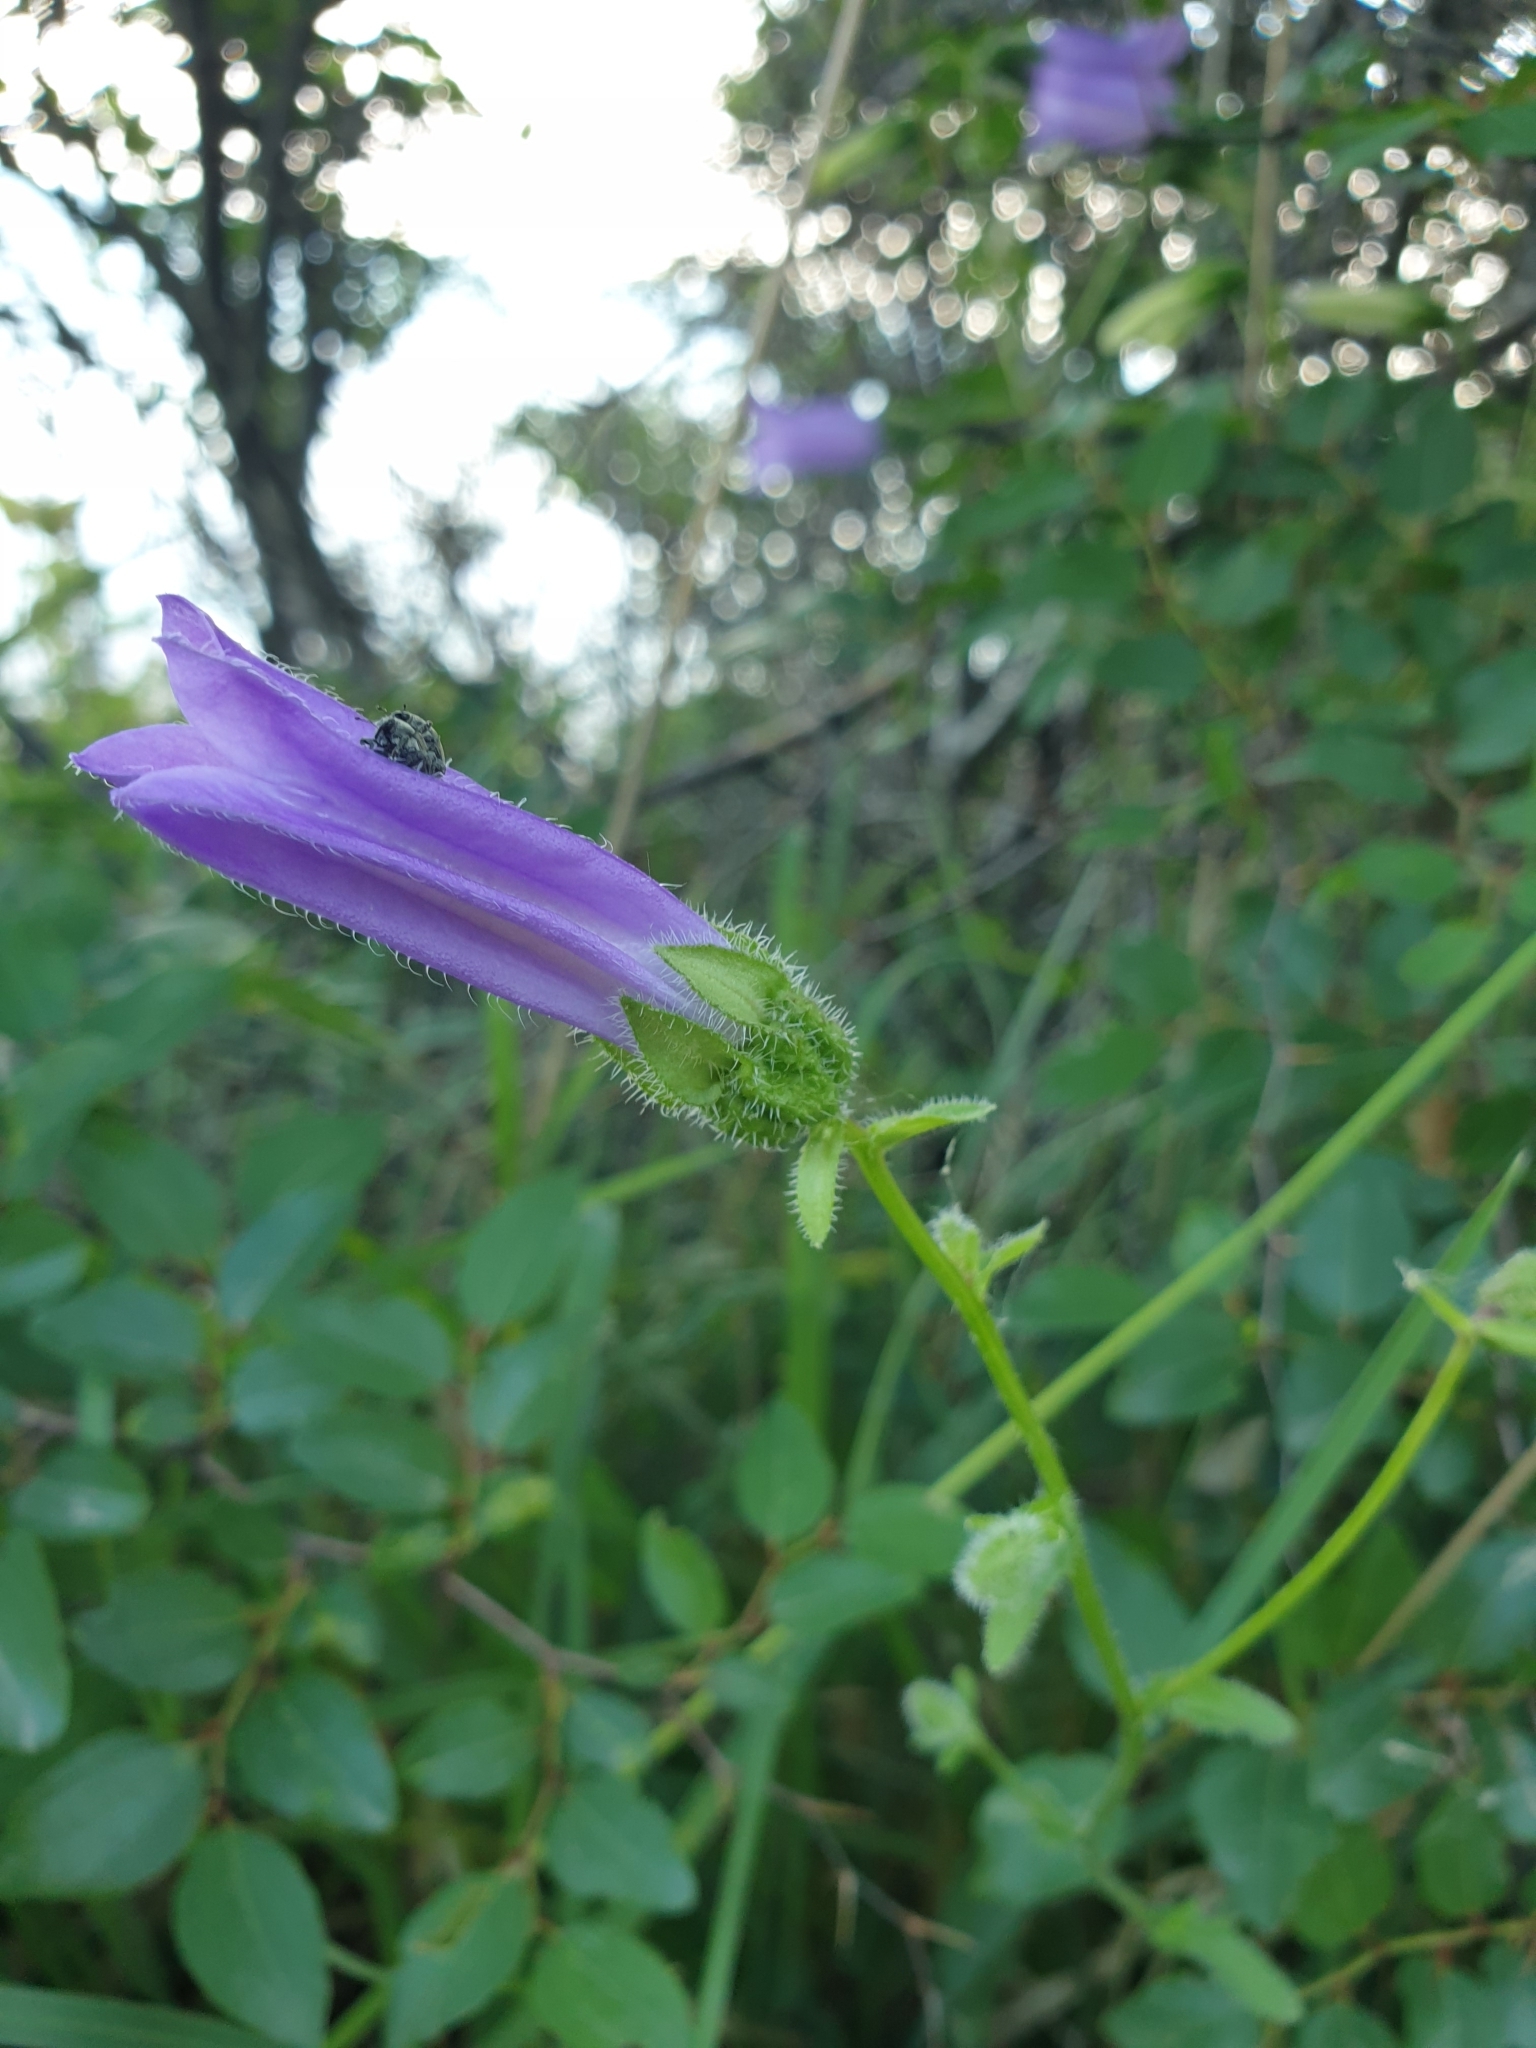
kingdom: Plantae
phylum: Tracheophyta
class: Magnoliopsida
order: Asterales
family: Campanulaceae
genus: Campanula
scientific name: Campanula komarovii
